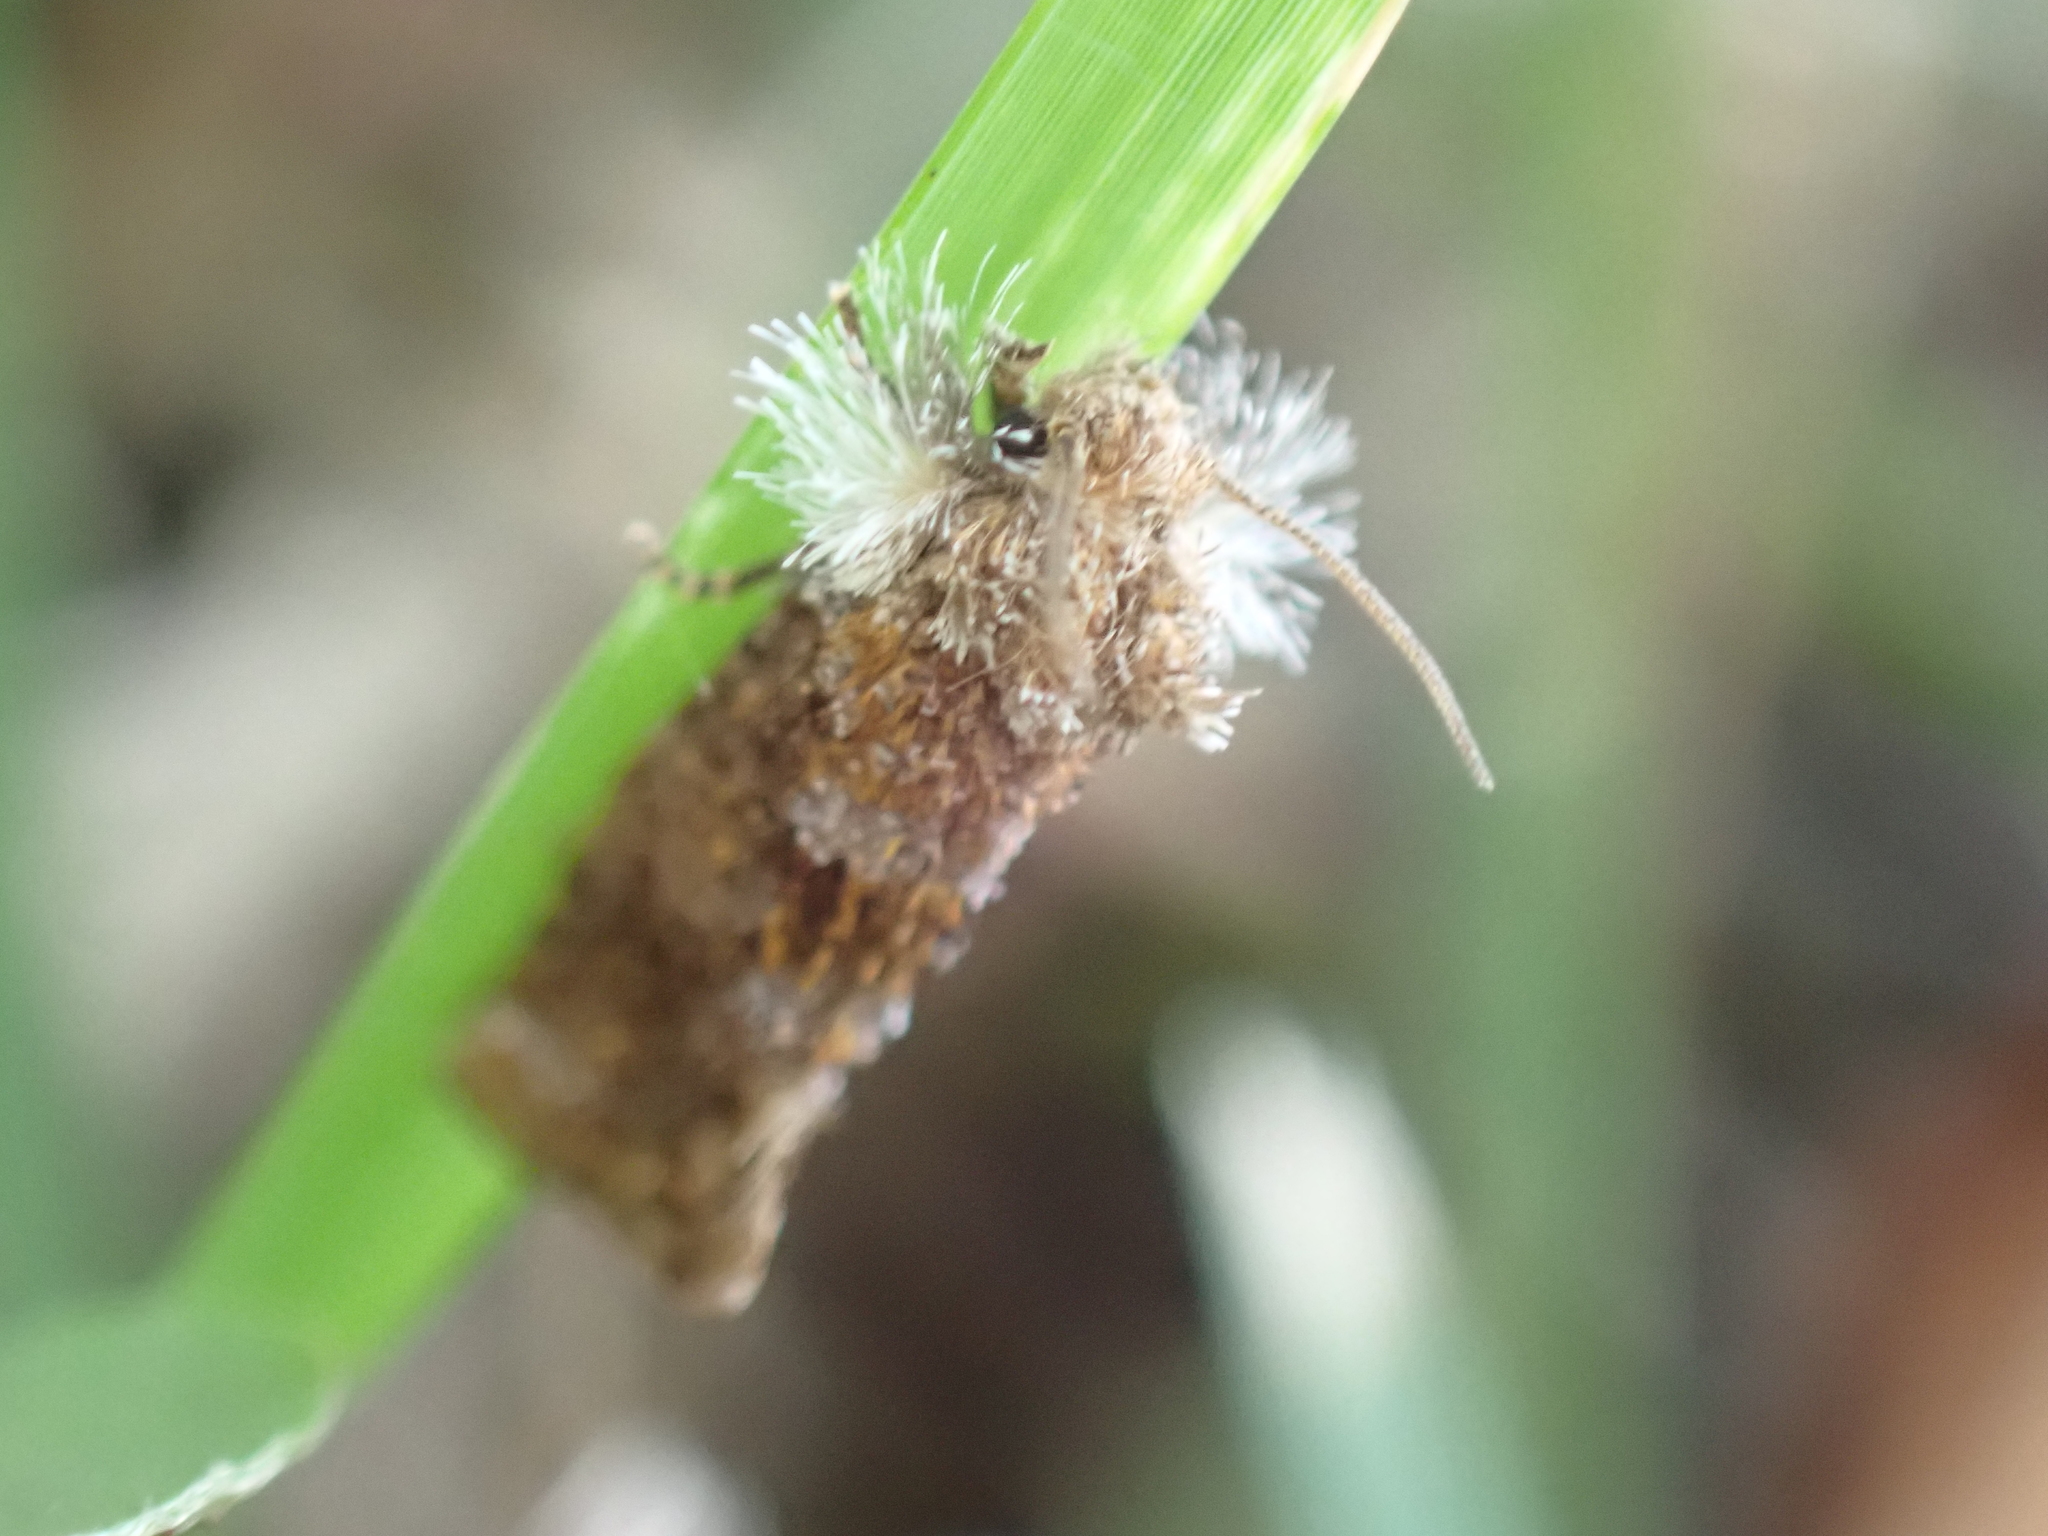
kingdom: Animalia
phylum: Arthropoda
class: Insecta
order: Lepidoptera
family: Tineidae
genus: Acrolophus
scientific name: Acrolophus panamae
